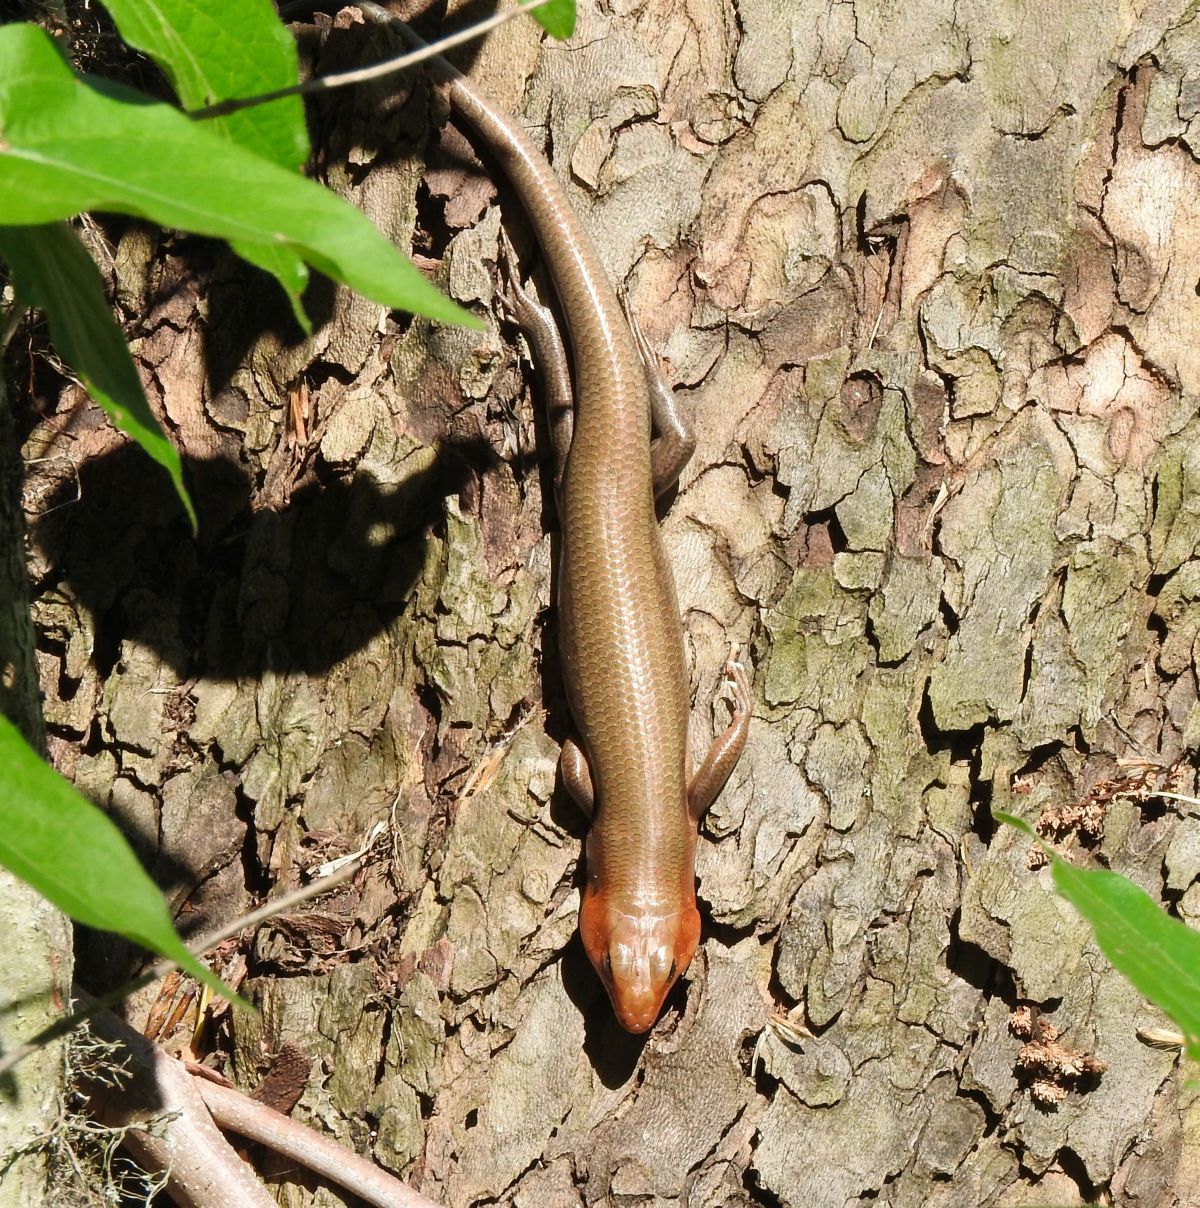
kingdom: Animalia
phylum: Chordata
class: Squamata
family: Scincidae
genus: Plestiodon
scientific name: Plestiodon laticeps
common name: Broadhead skink
